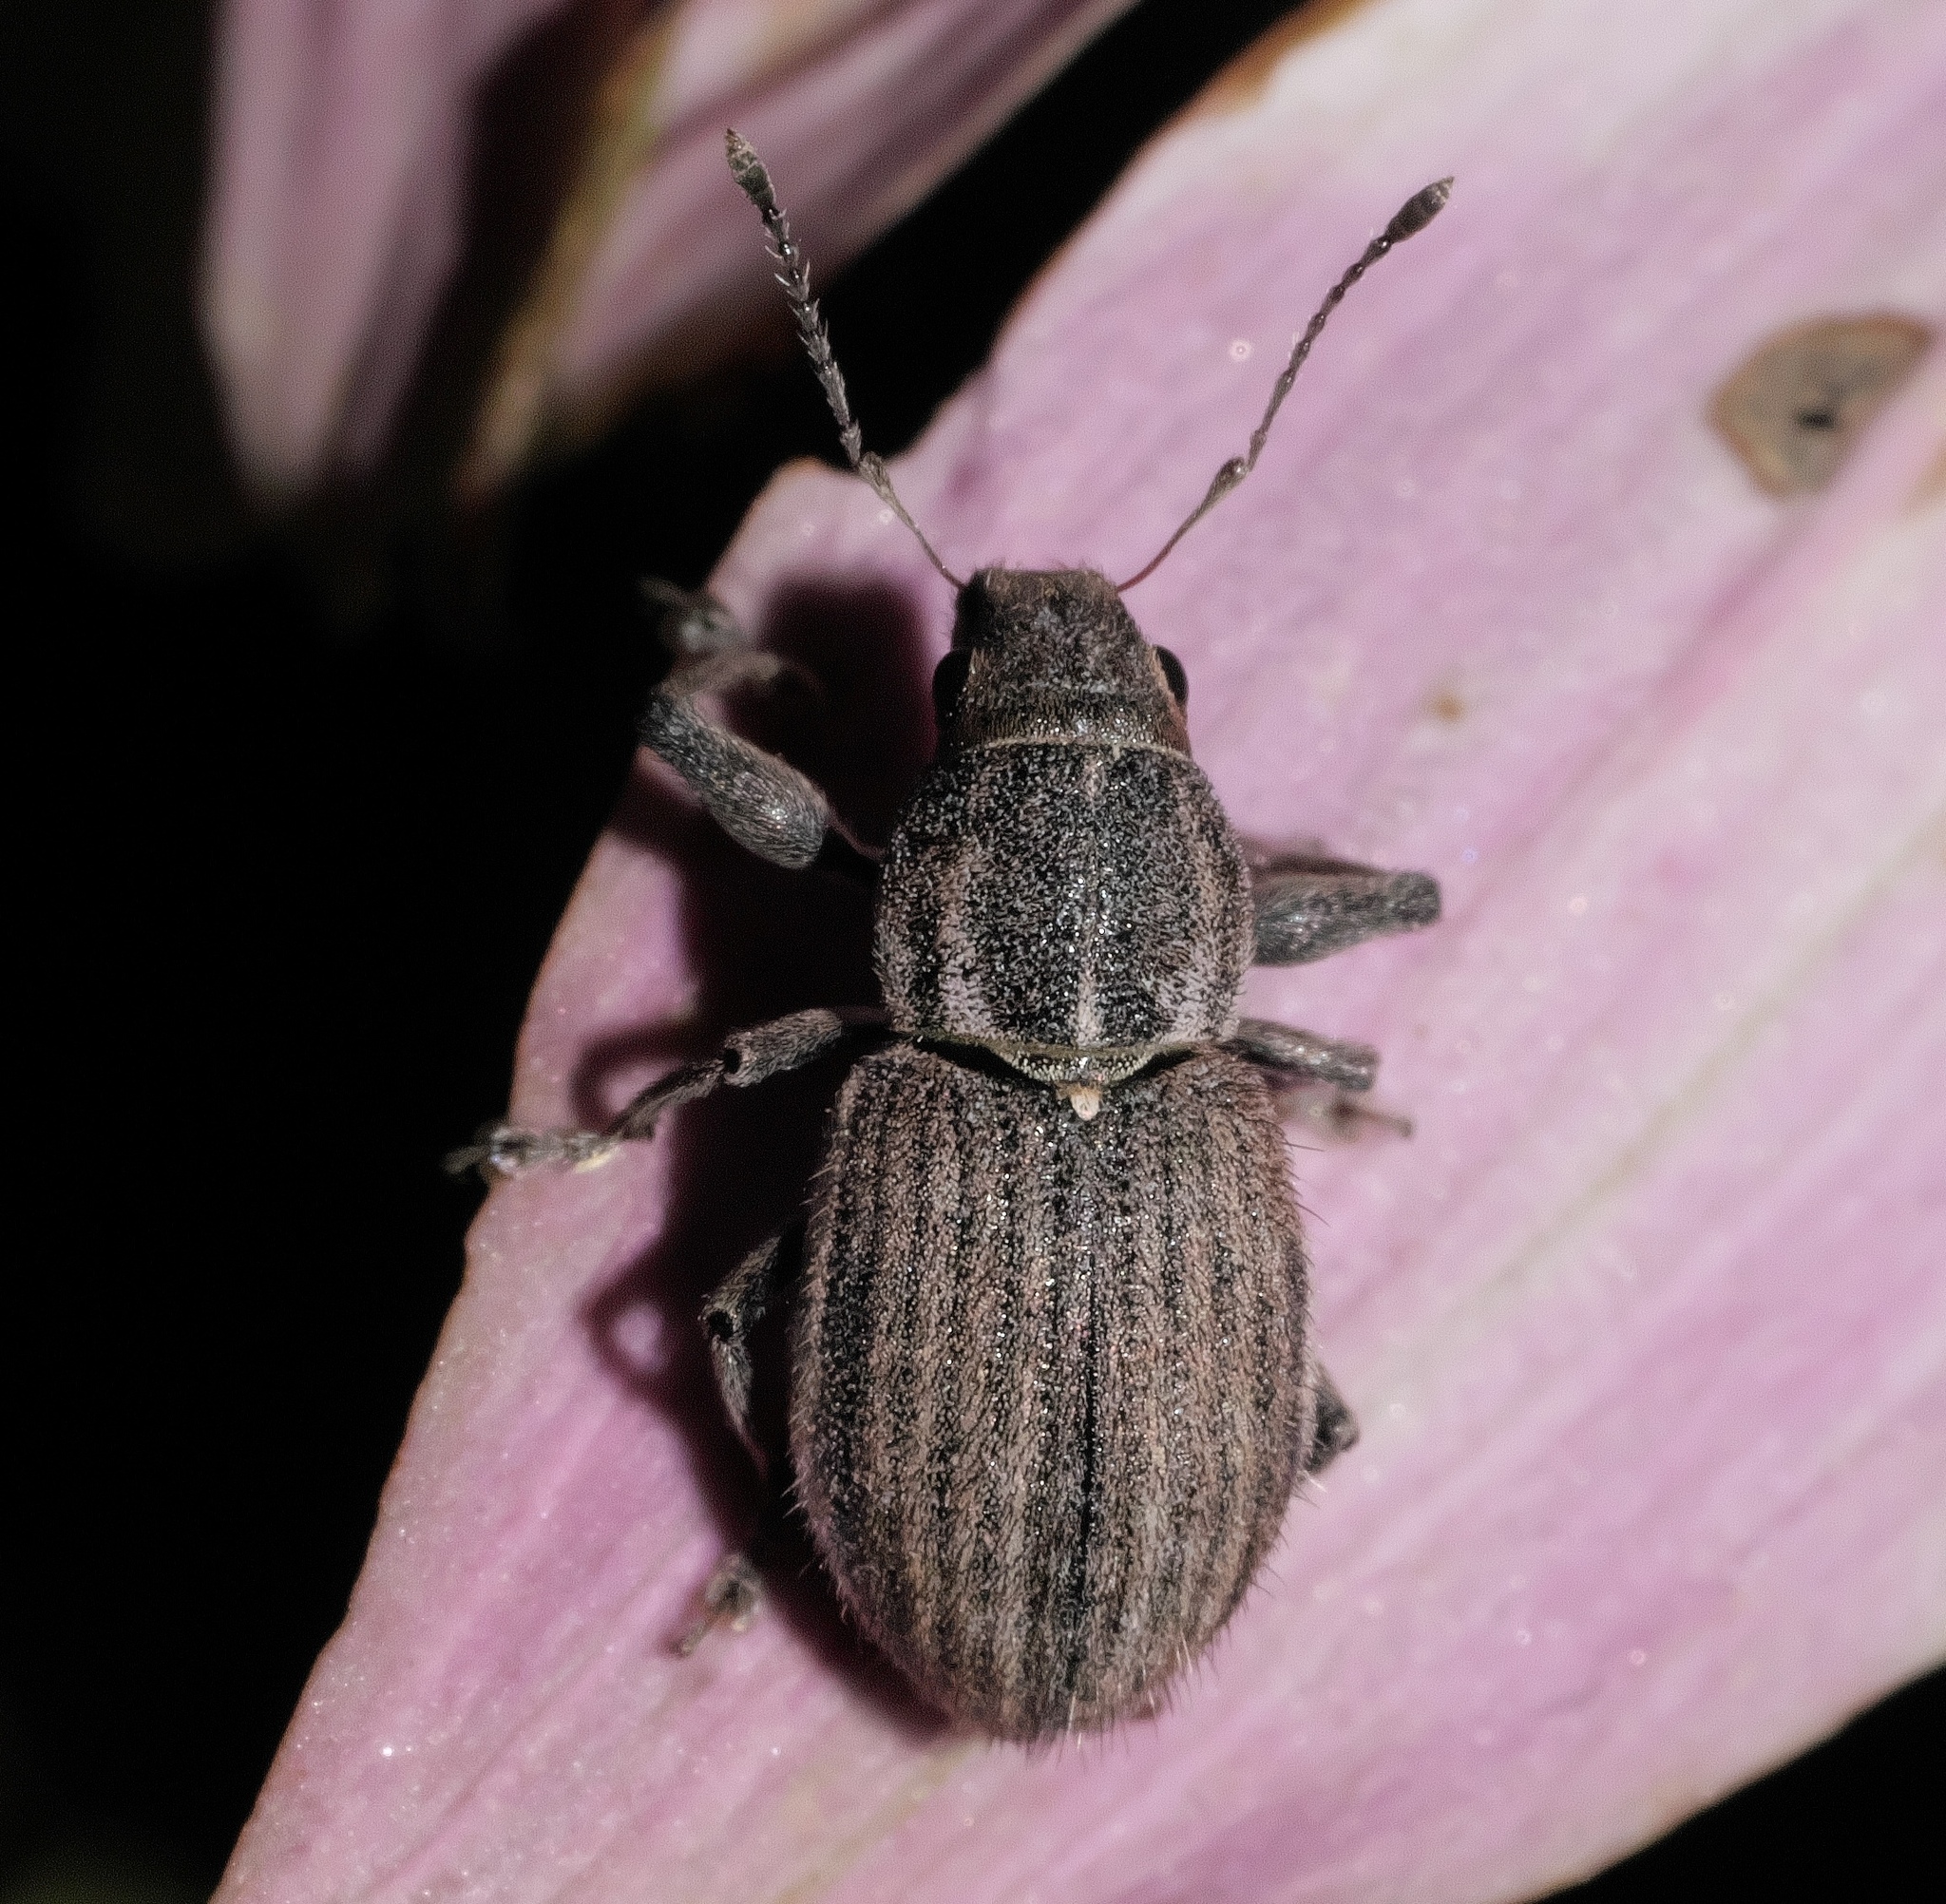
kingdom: Animalia
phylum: Arthropoda
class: Insecta
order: Coleoptera
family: Curculionidae
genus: Naupactus
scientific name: Naupactus leucoloma
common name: Whitefringed beetle
